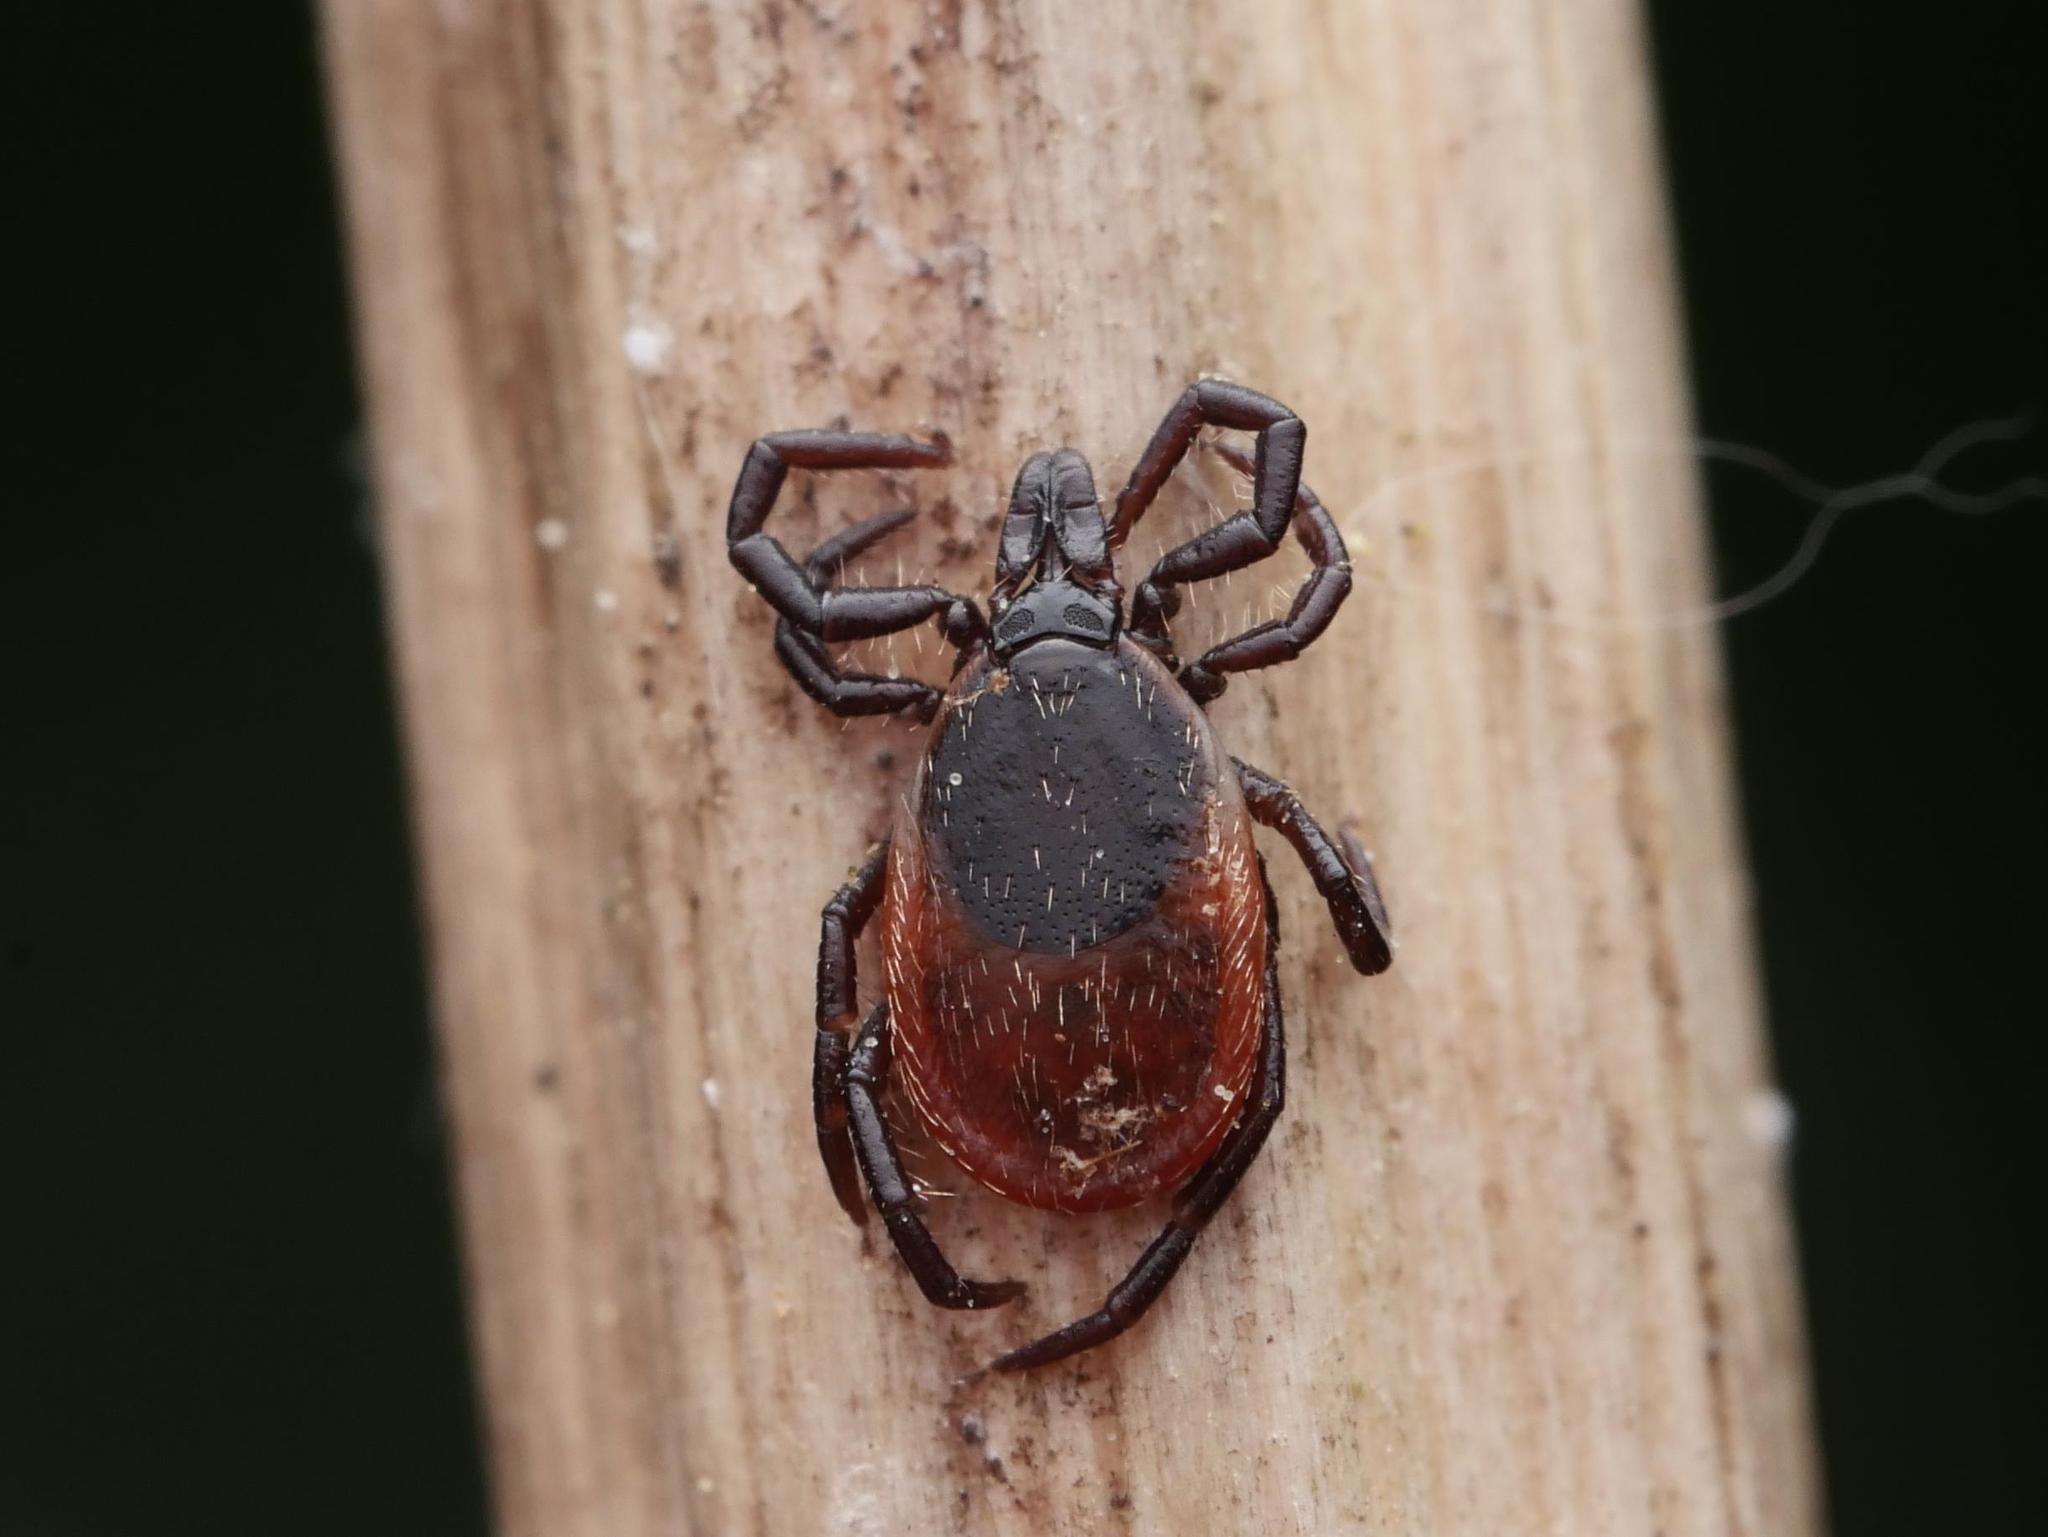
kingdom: Animalia
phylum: Arthropoda
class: Arachnida
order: Ixodida
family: Ixodidae
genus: Ixodes
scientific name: Ixodes ricinus
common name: Castor bean tick
